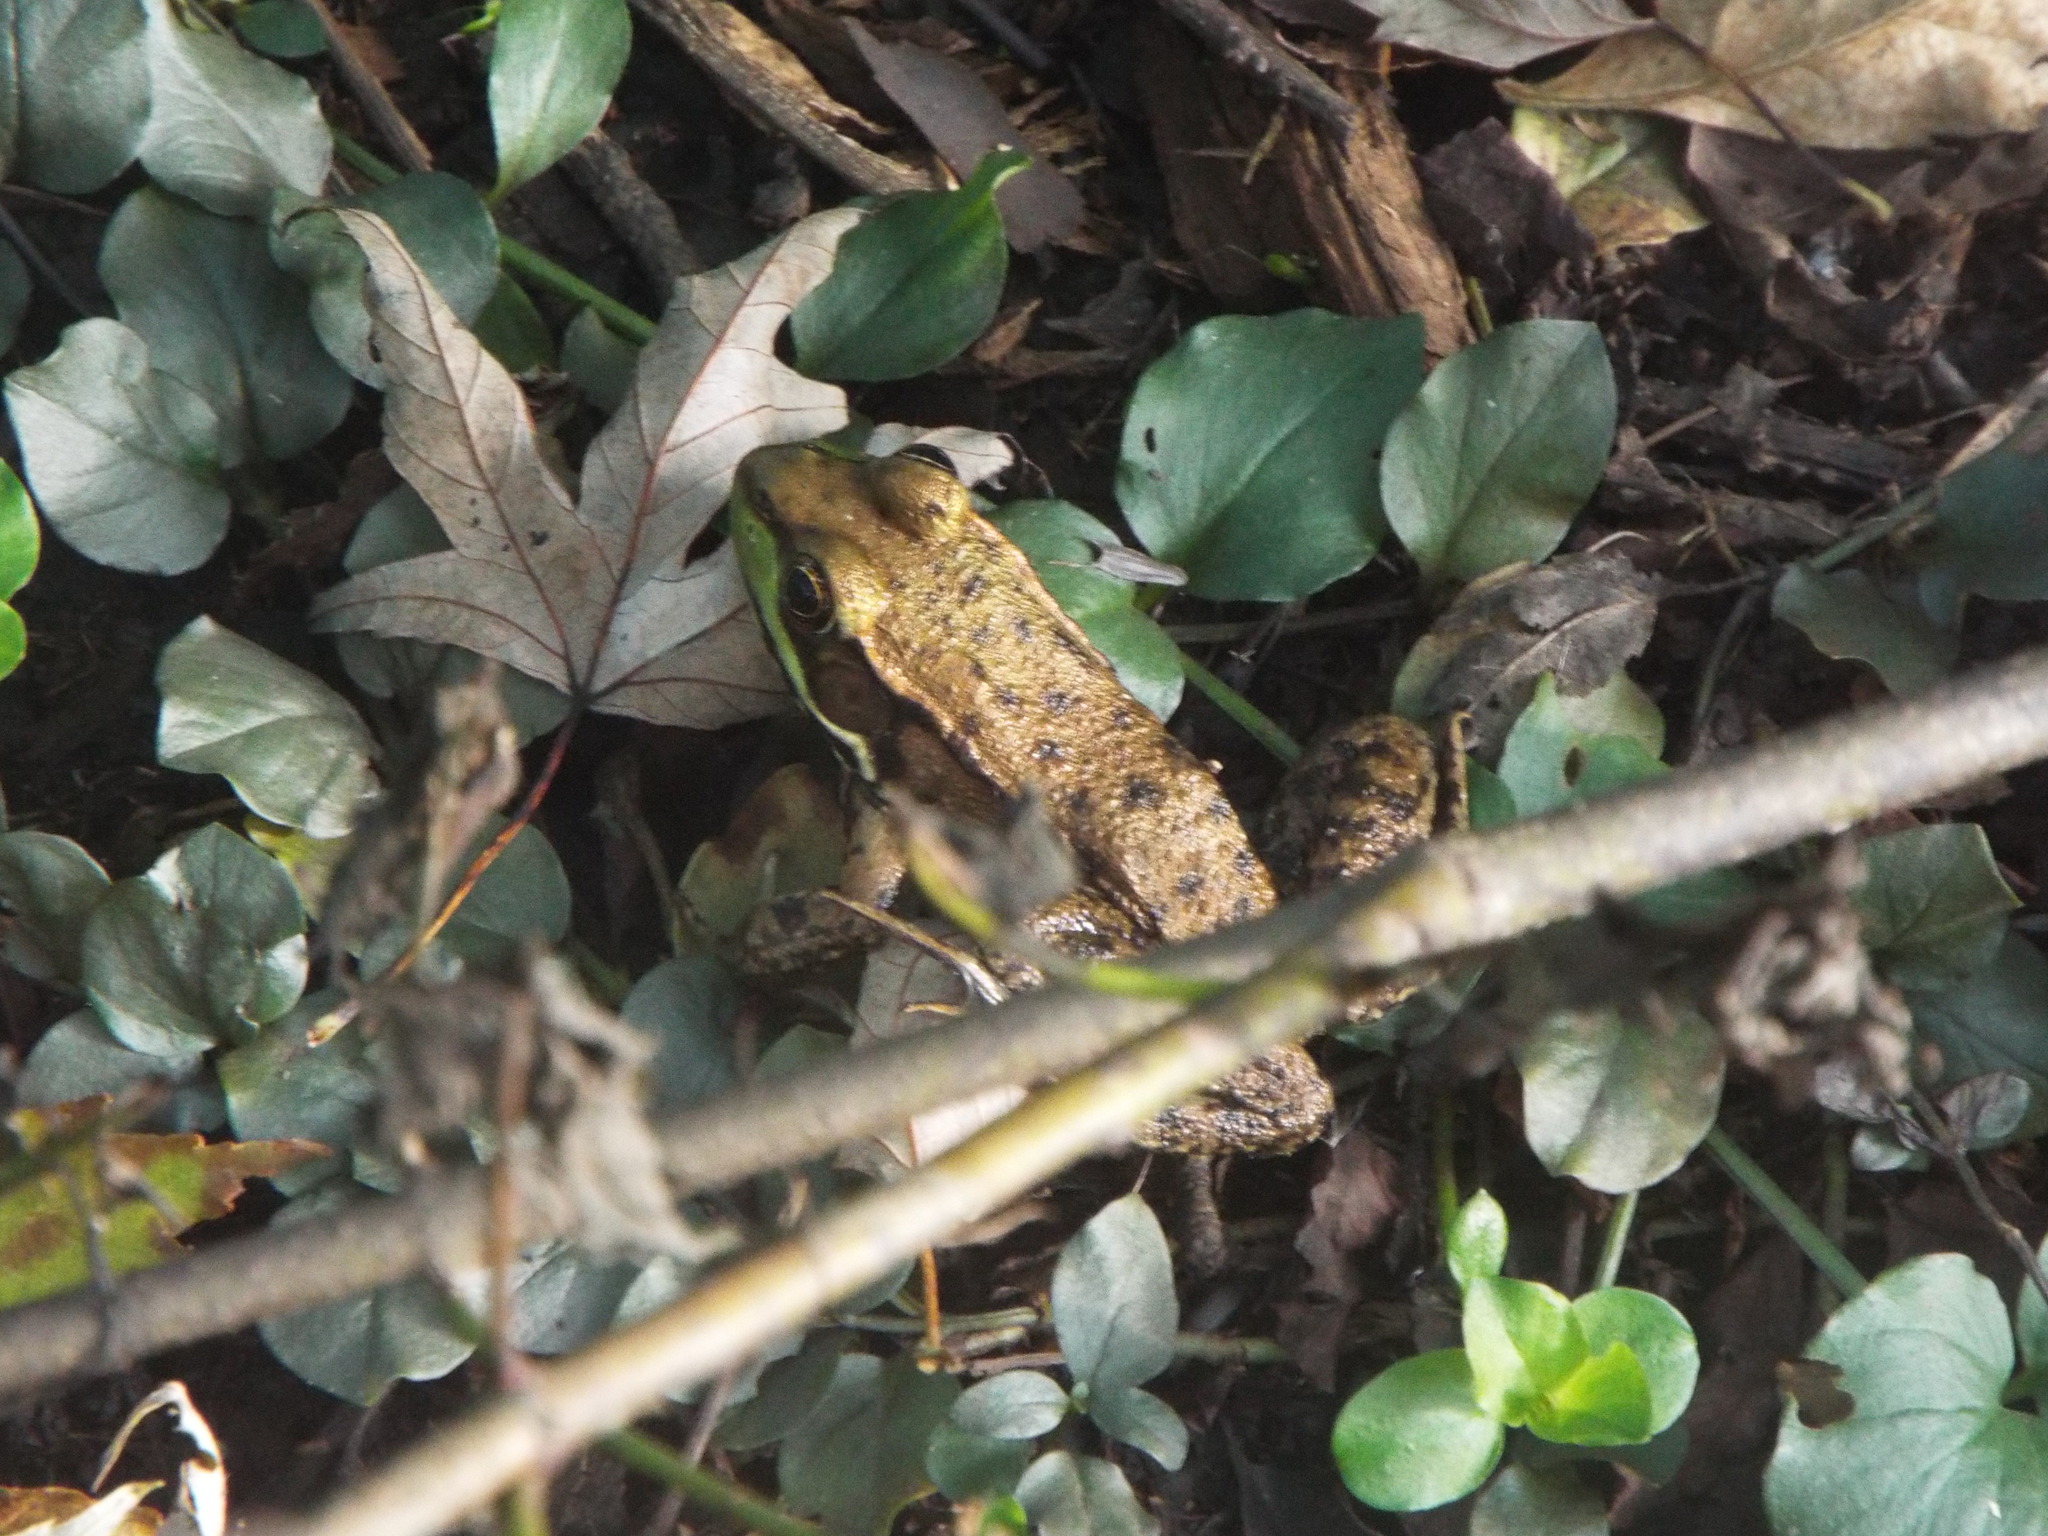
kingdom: Animalia
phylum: Chordata
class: Amphibia
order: Anura
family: Ranidae
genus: Lithobates
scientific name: Lithobates clamitans
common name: Green frog
